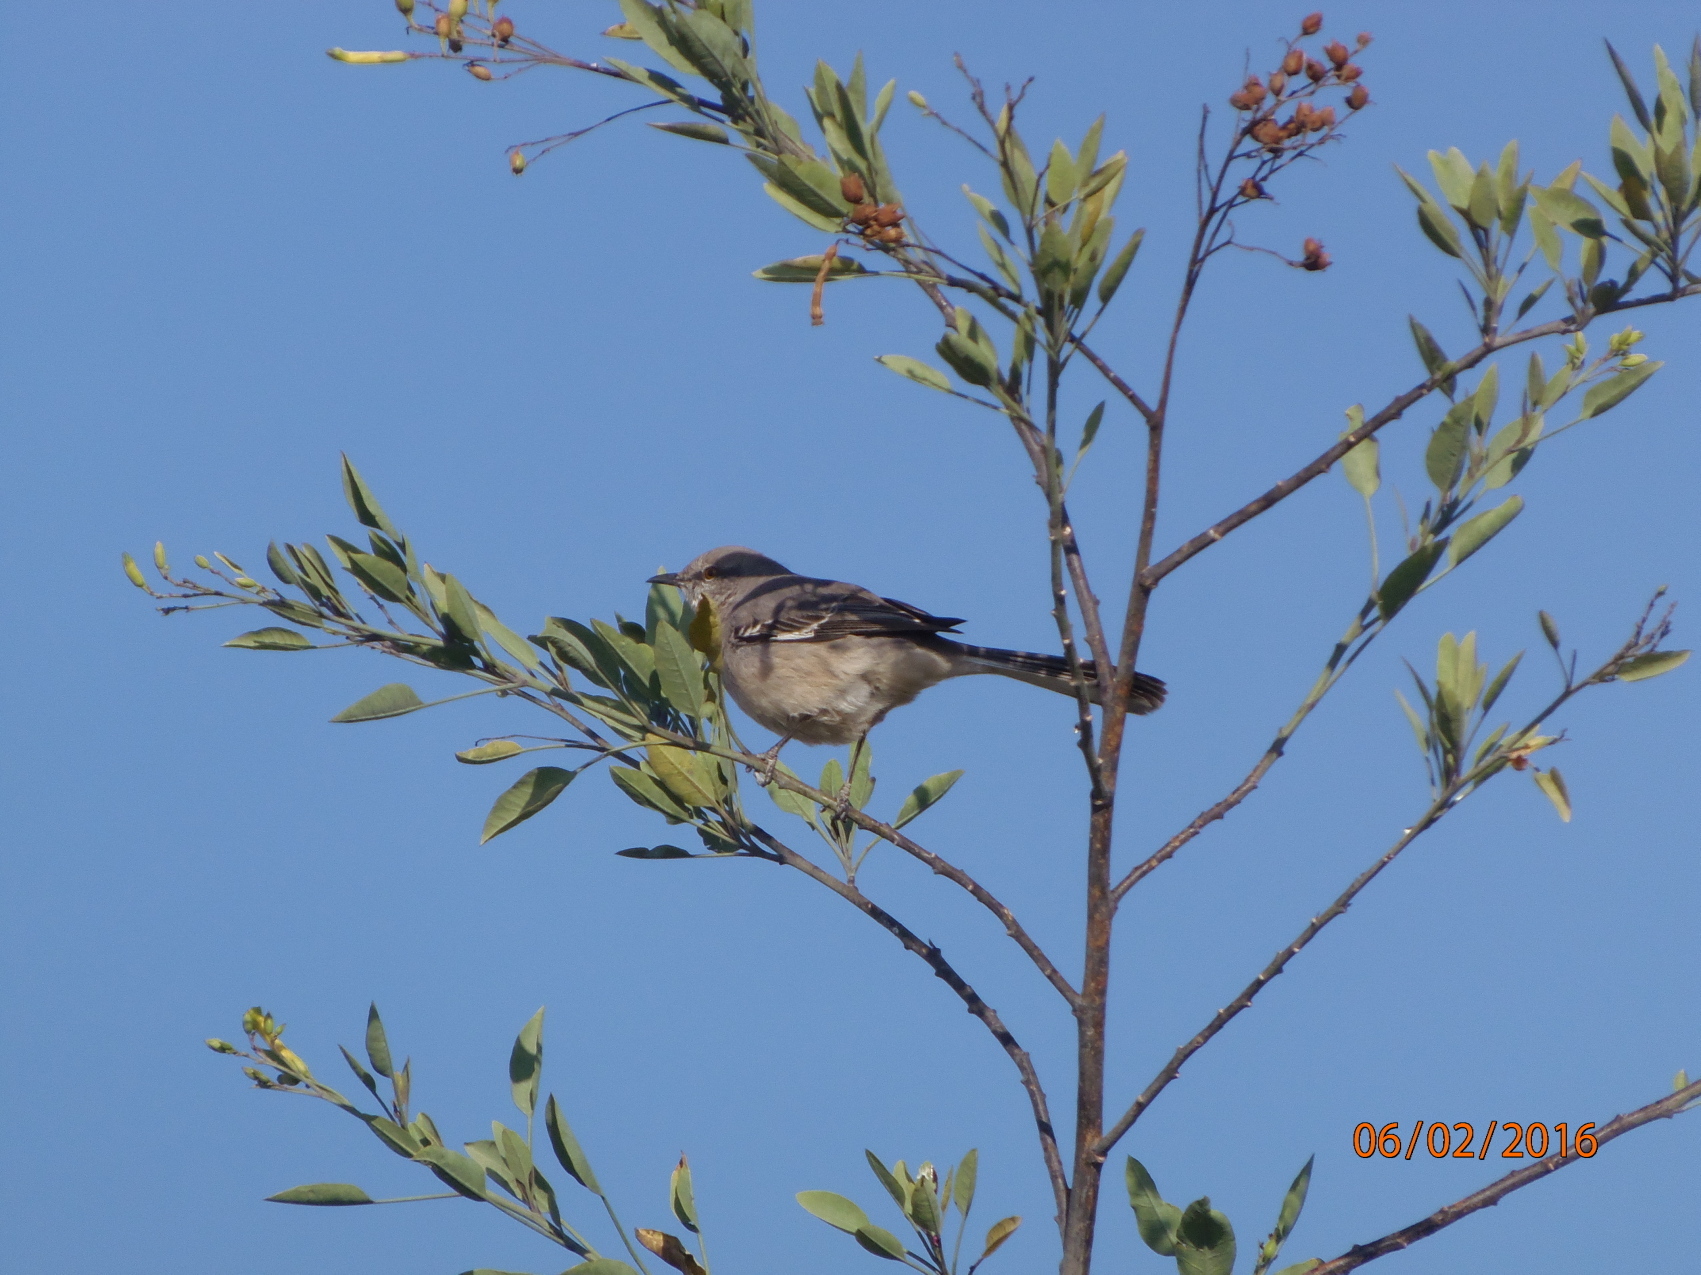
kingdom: Animalia
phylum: Chordata
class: Aves
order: Passeriformes
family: Mimidae
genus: Mimus
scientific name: Mimus polyglottos
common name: Northern mockingbird
